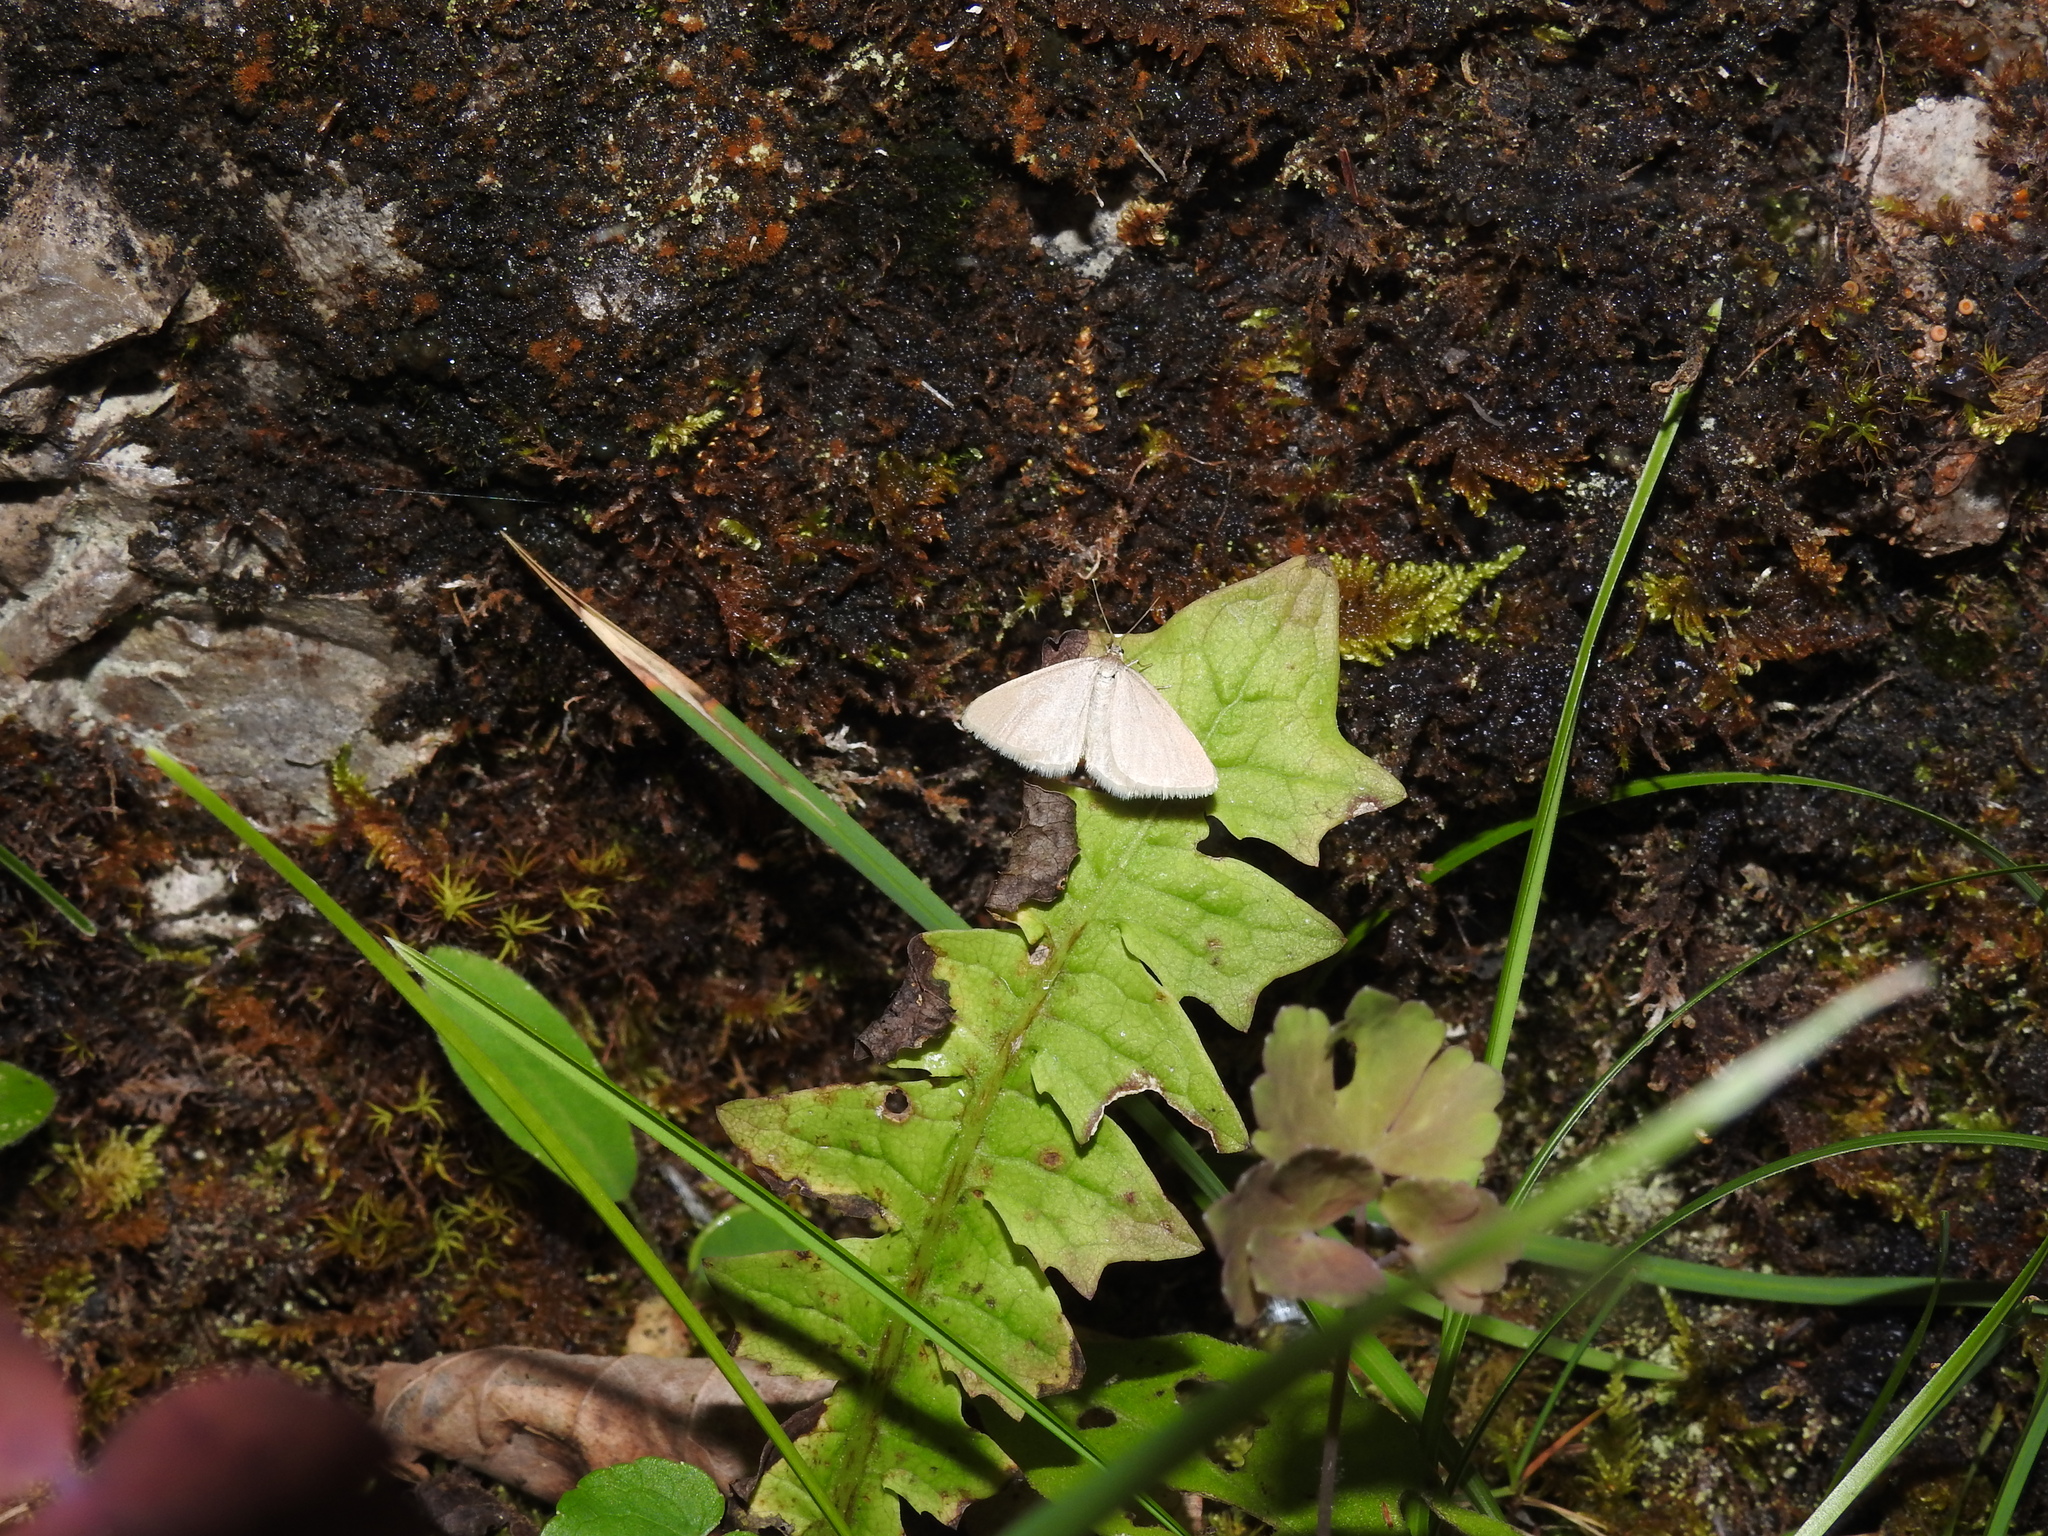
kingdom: Animalia
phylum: Arthropoda
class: Insecta
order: Lepidoptera
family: Geometridae
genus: Minoa
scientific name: Minoa murinata
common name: Drab looper
